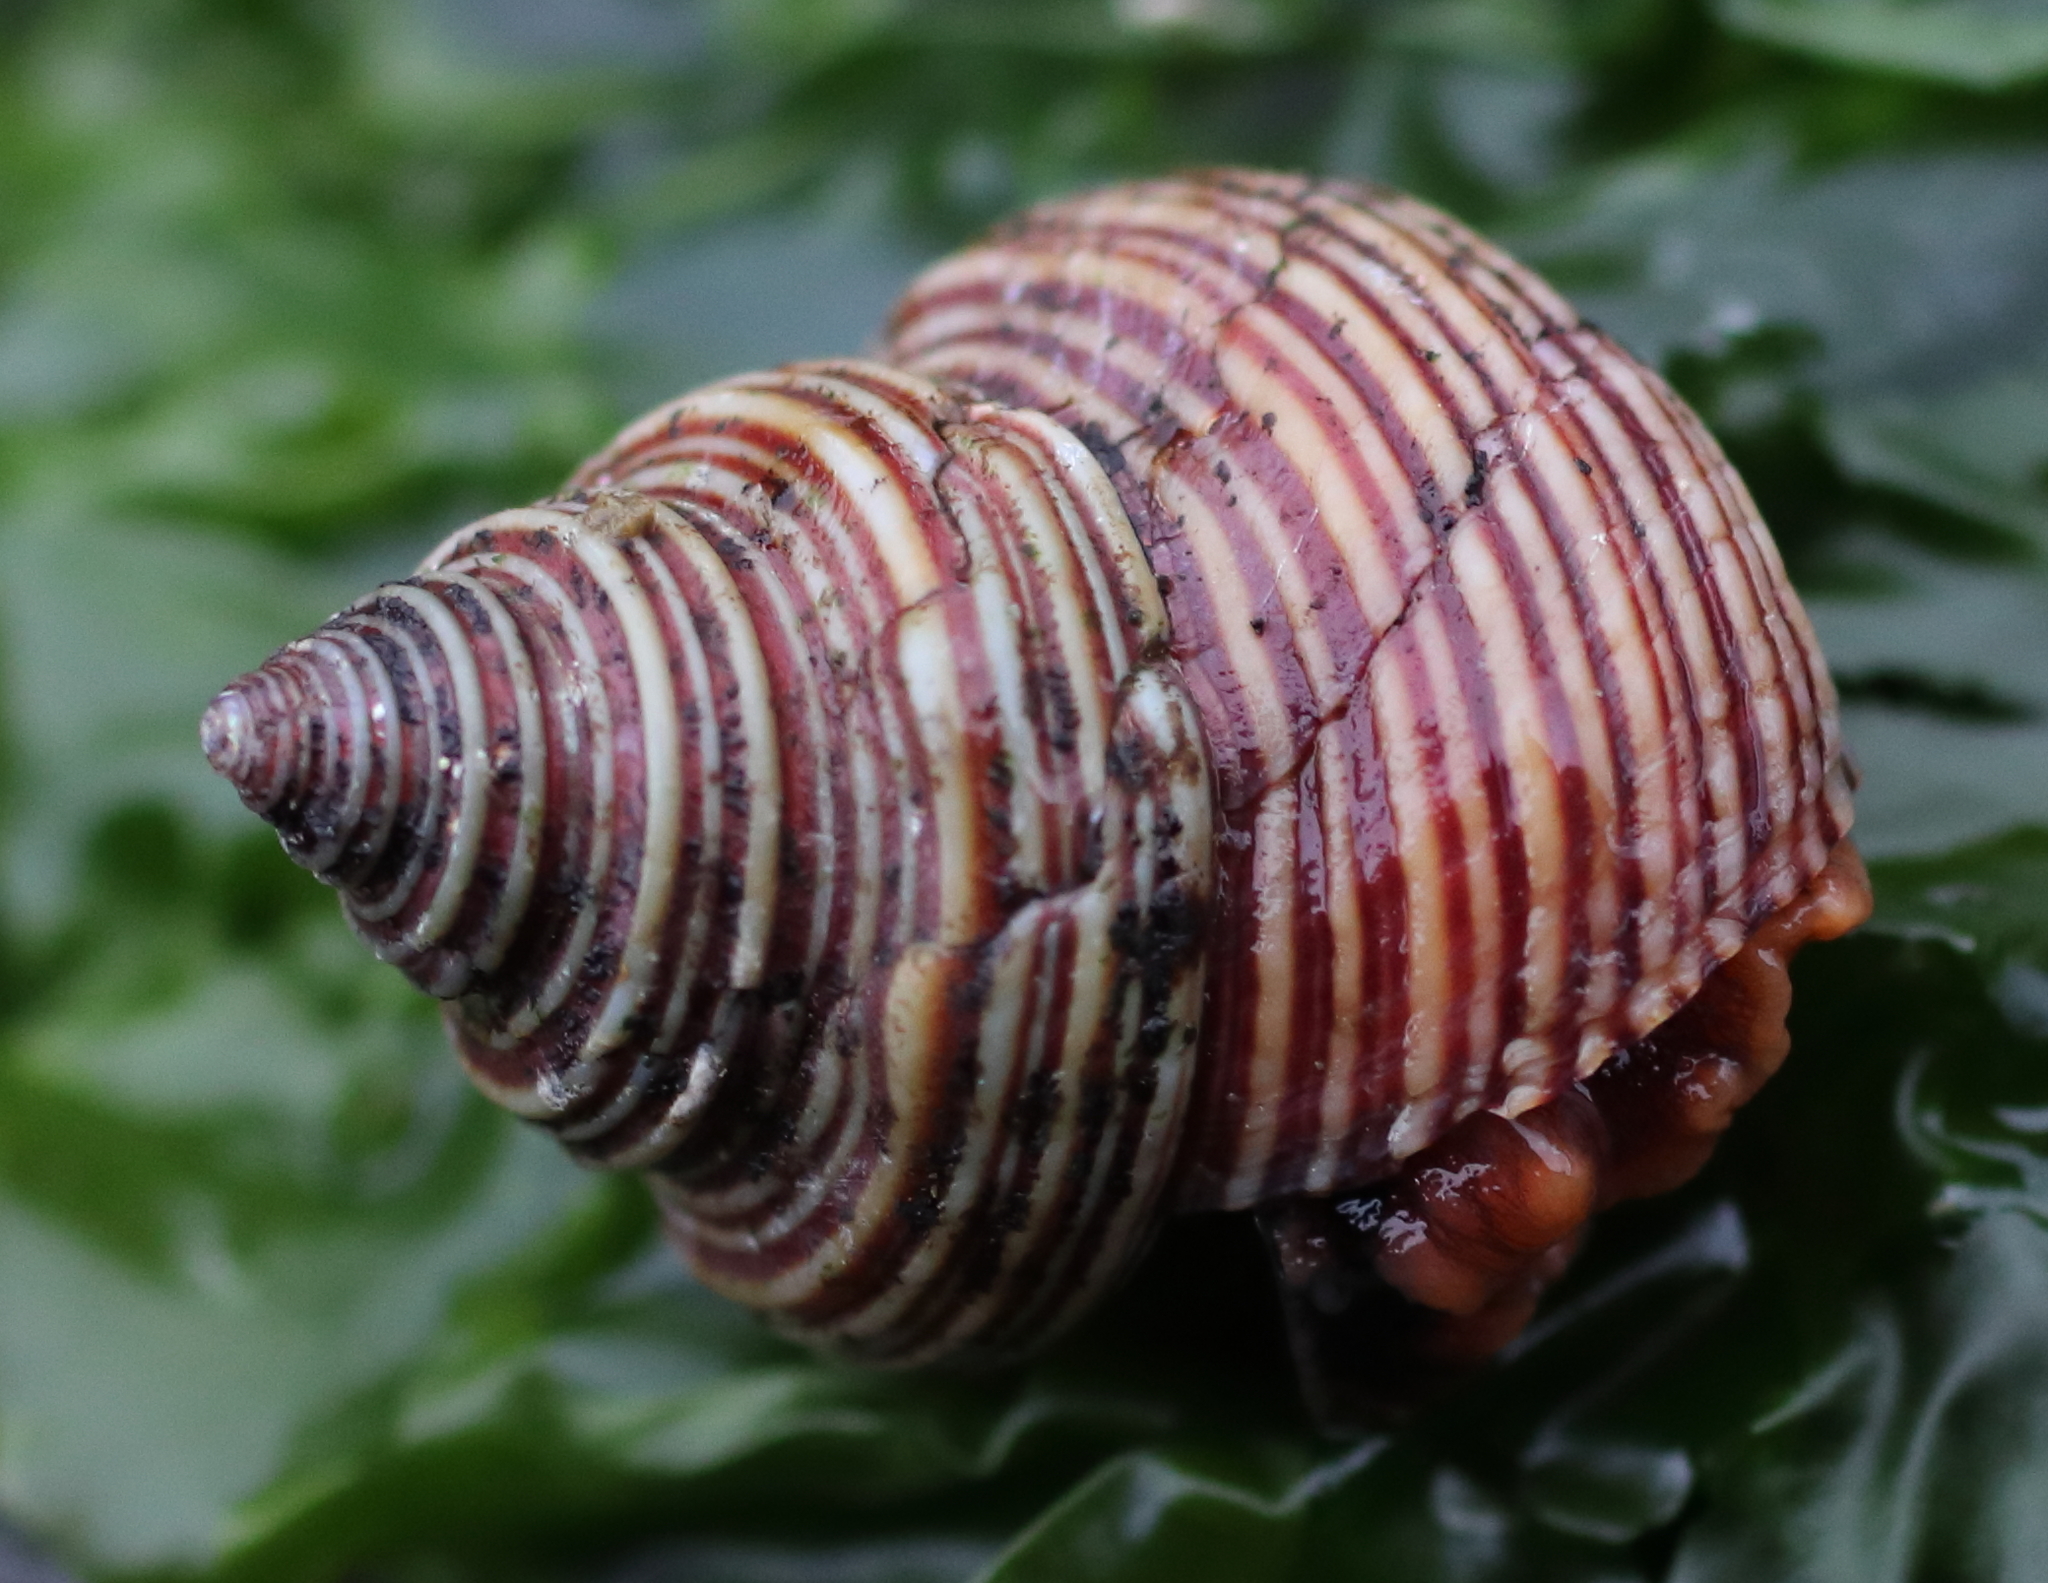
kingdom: Animalia
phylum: Mollusca
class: Gastropoda
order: Trochida
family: Calliostomatidae
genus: Calliostoma
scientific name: Calliostoma ligatum
